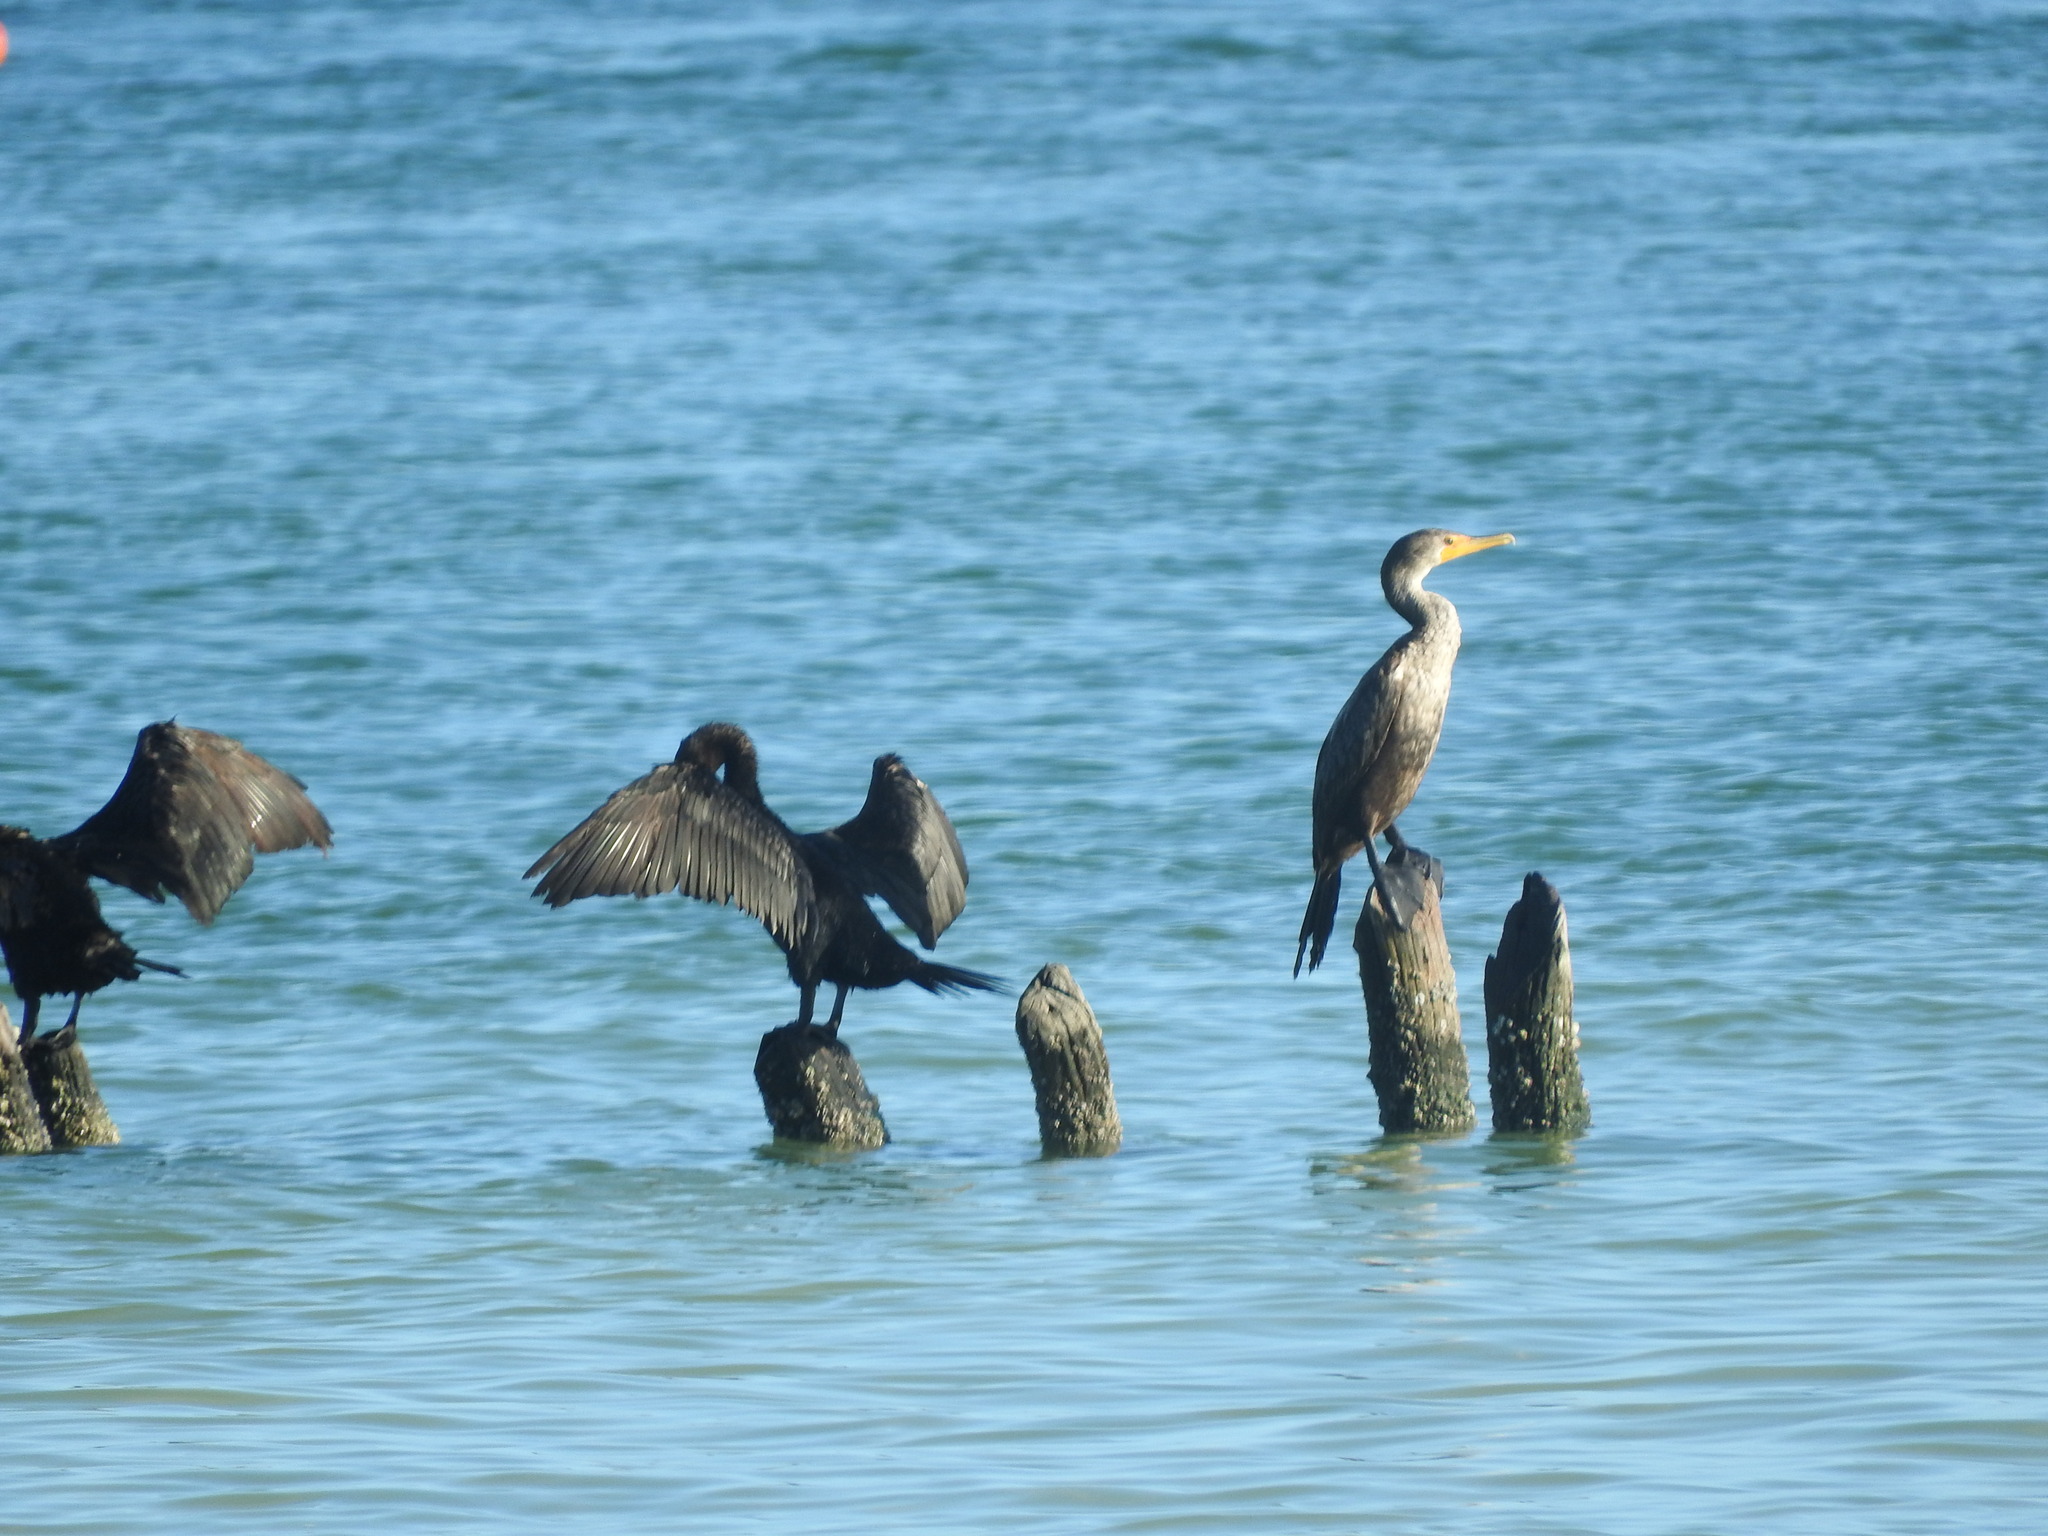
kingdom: Animalia
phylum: Chordata
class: Aves
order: Suliformes
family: Phalacrocoracidae
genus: Phalacrocorax
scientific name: Phalacrocorax auritus
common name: Double-crested cormorant
